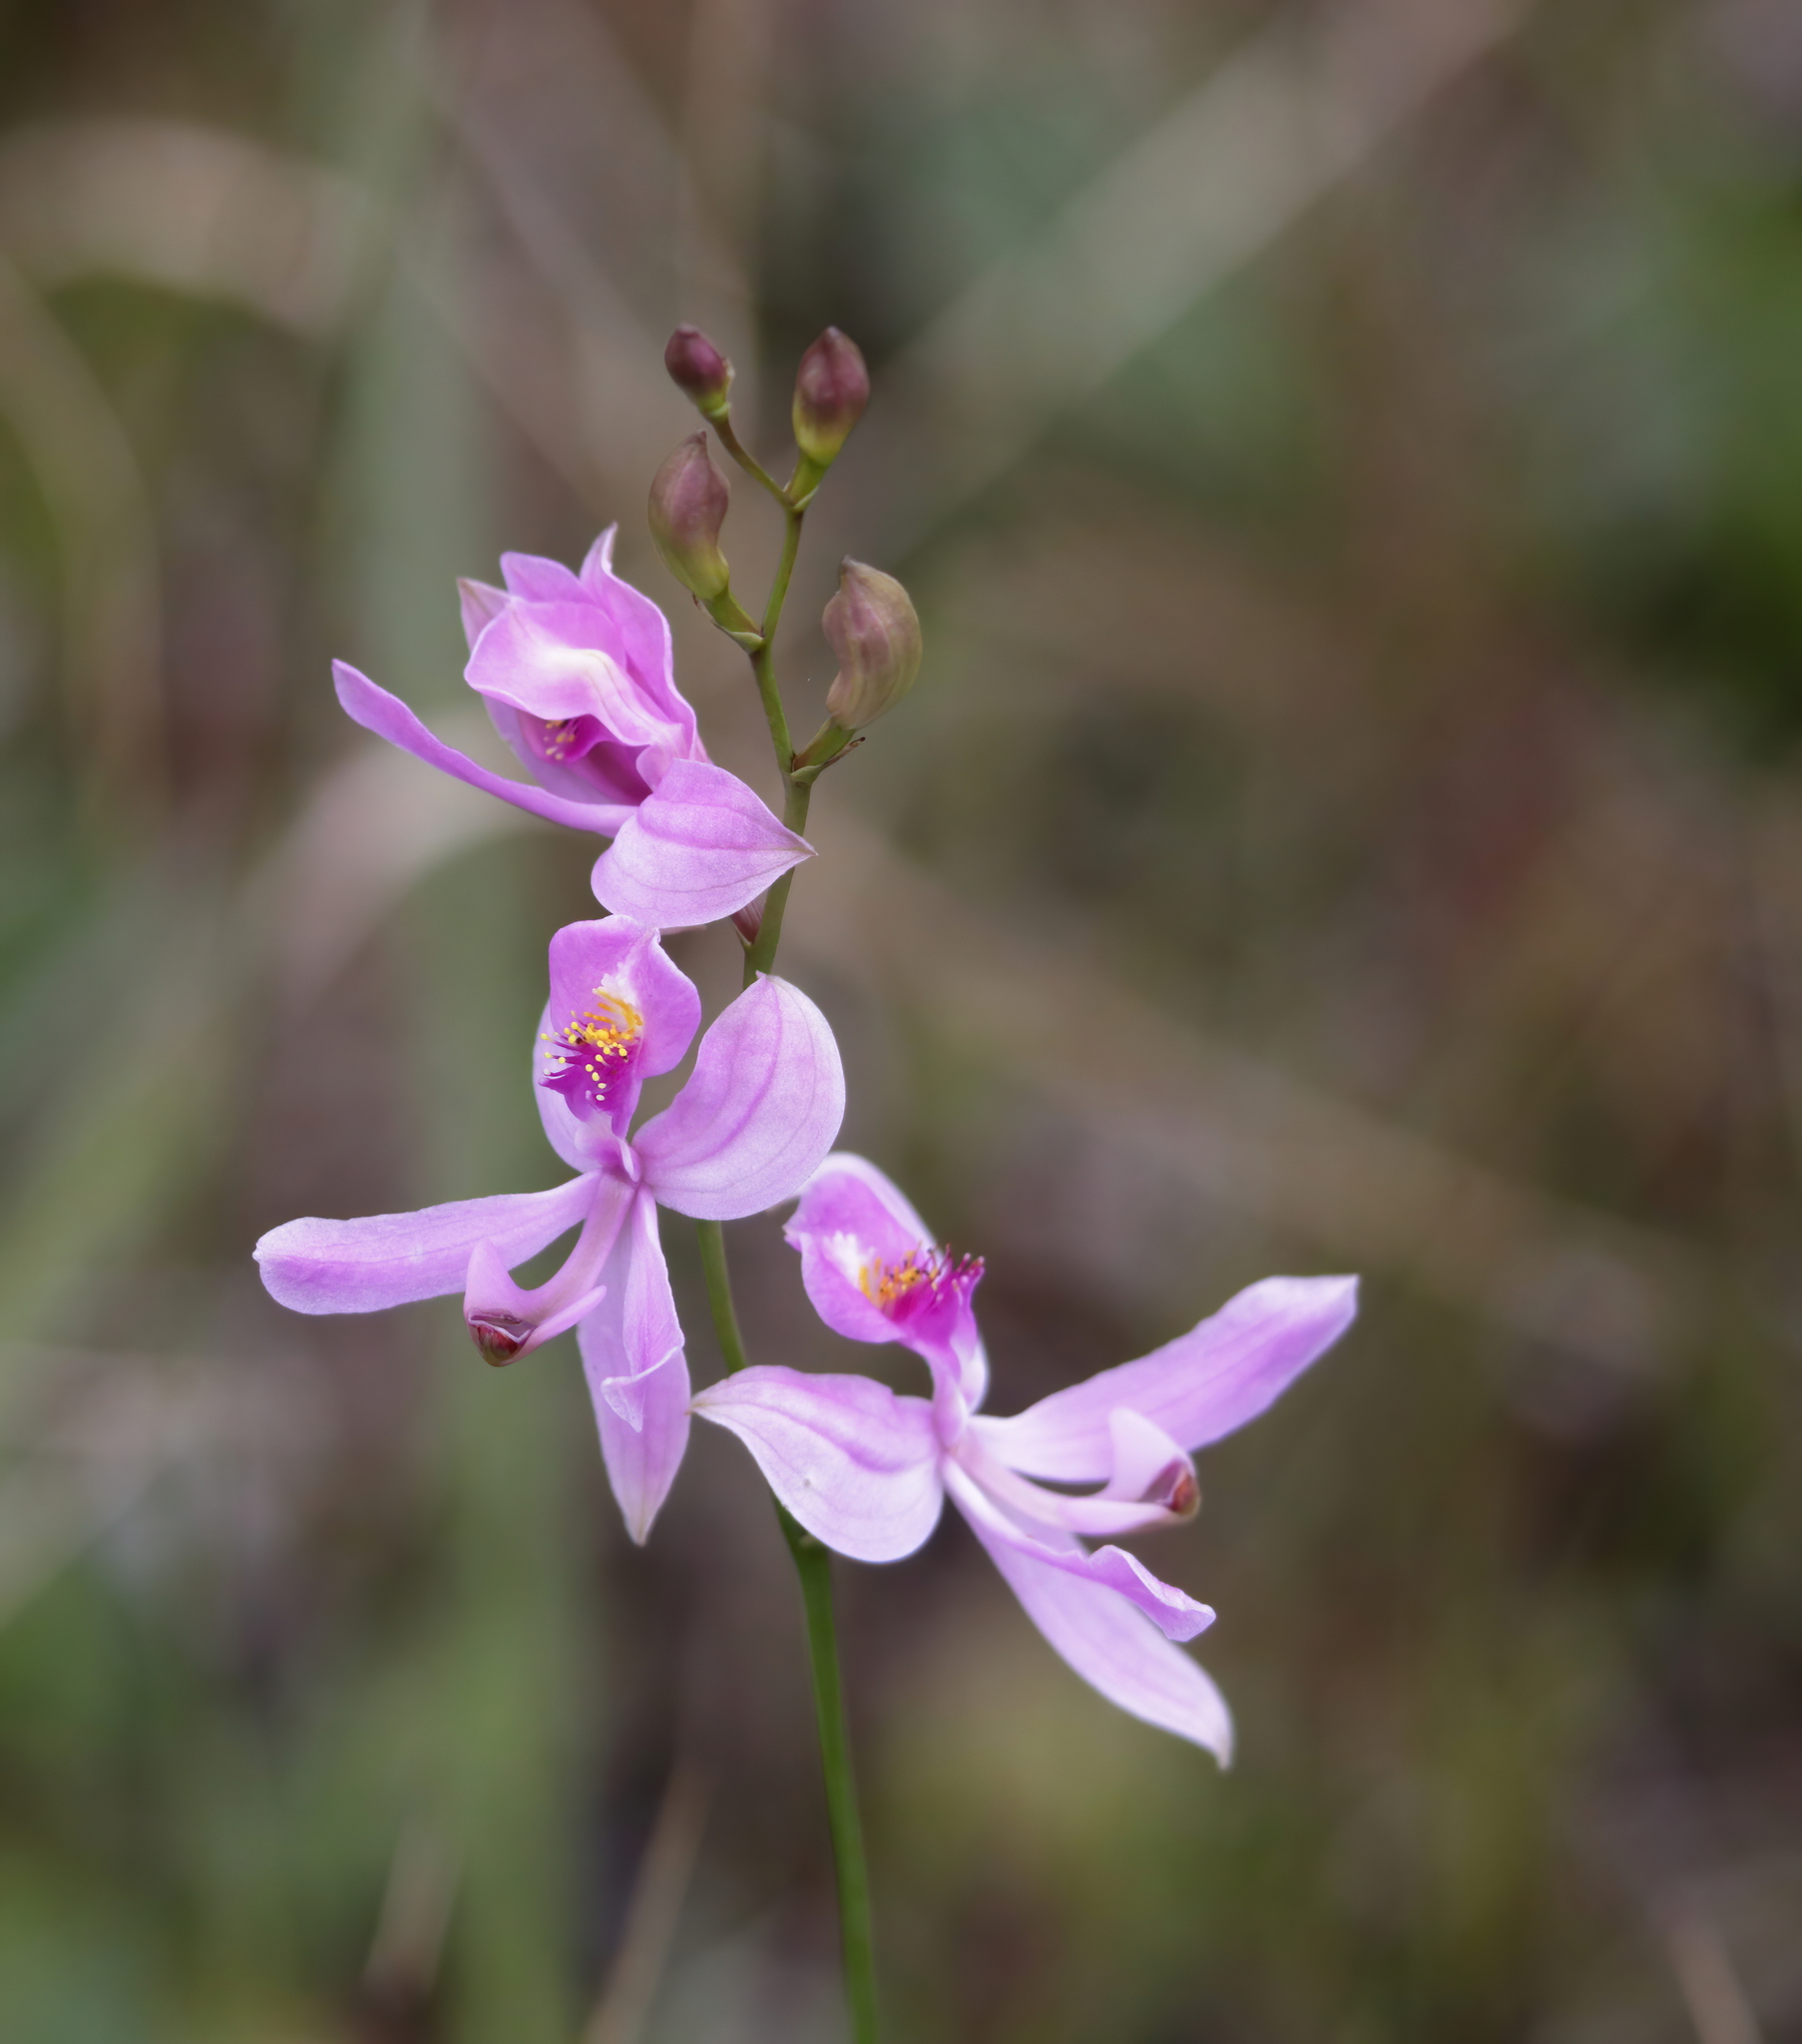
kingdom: Plantae
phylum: Tracheophyta
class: Liliopsida
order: Asparagales
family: Orchidaceae
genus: Calopogon
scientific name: Calopogon pallidus
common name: Pale grasspink
